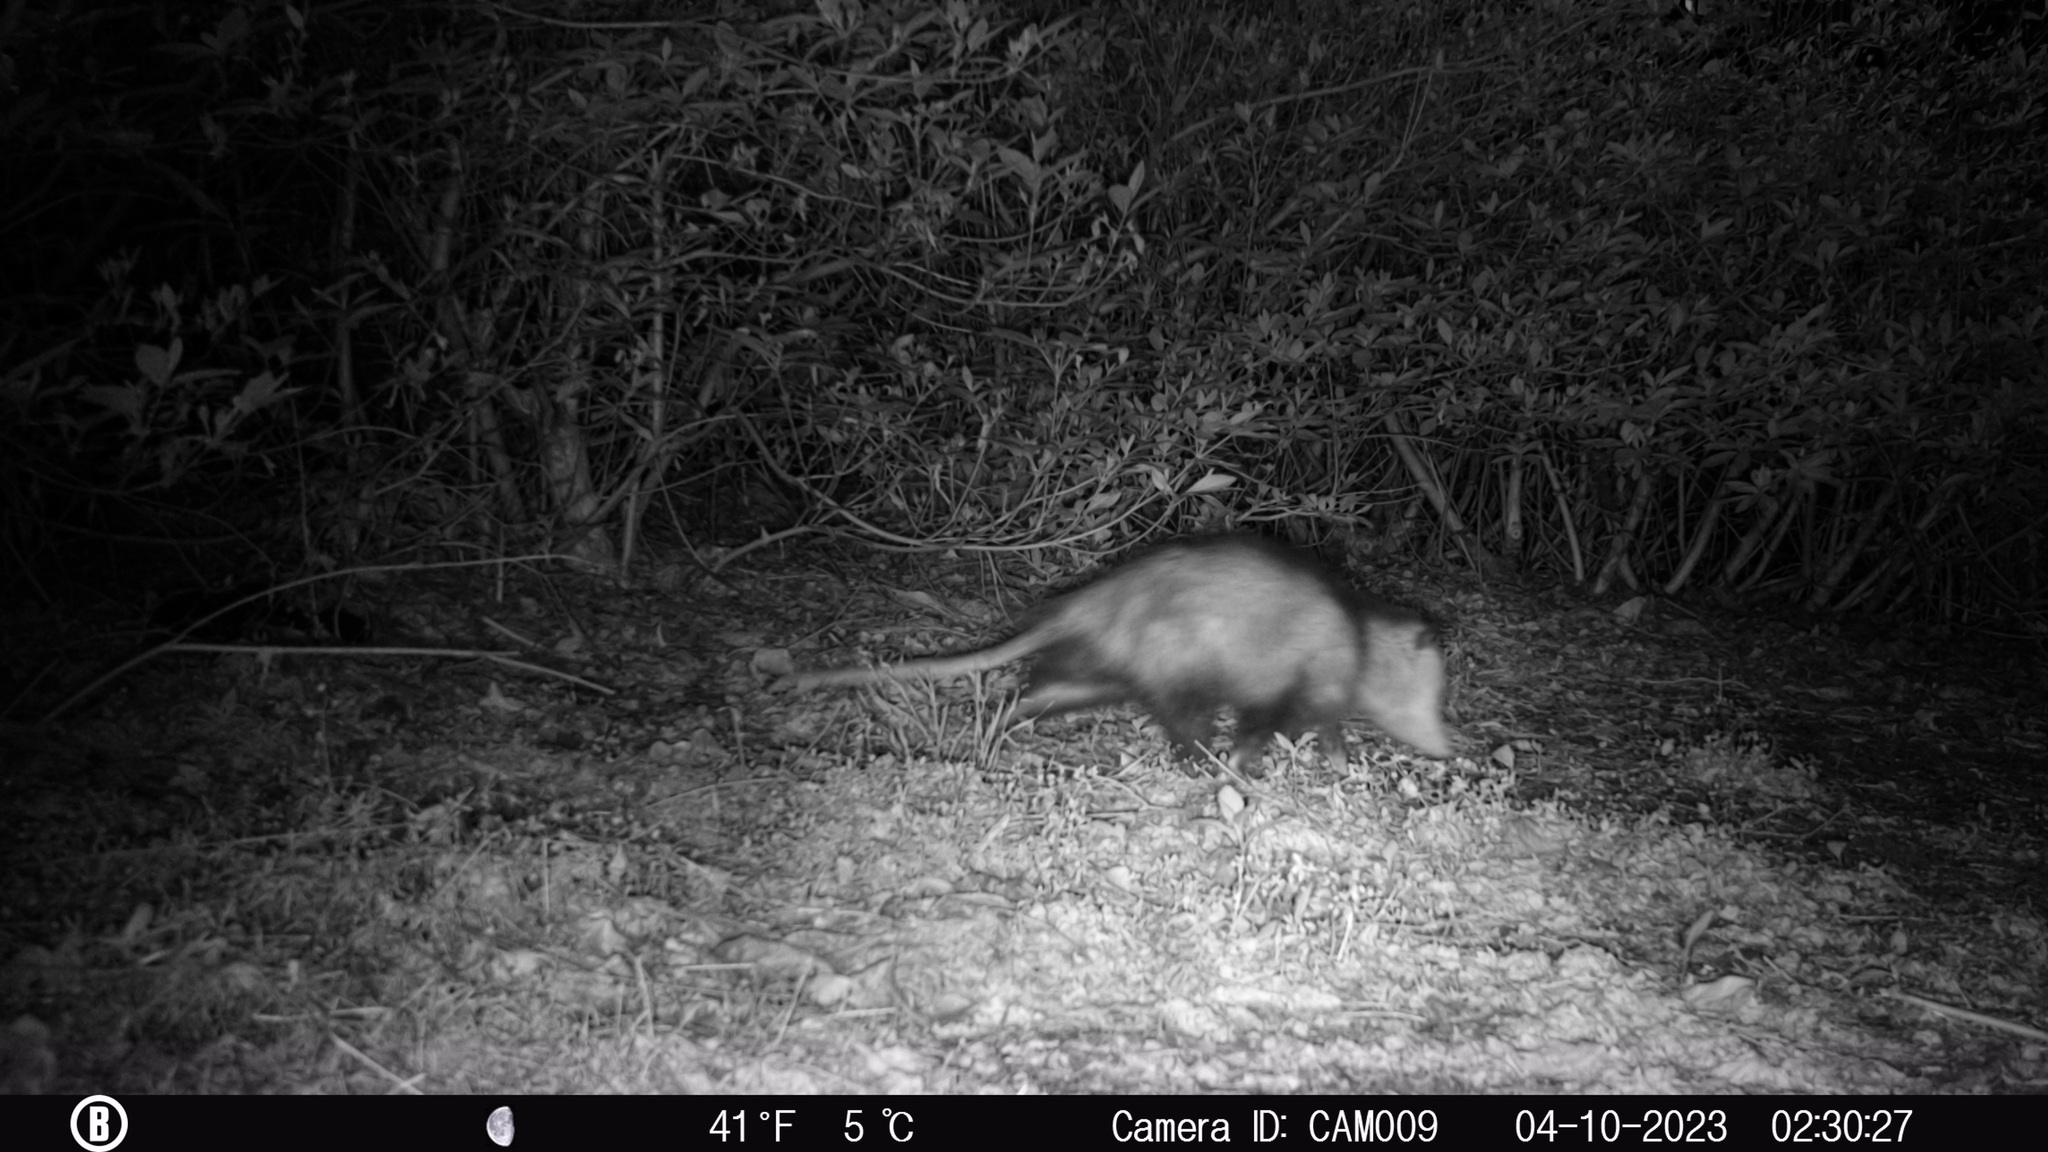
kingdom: Animalia
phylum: Chordata
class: Mammalia
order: Didelphimorphia
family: Didelphidae
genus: Didelphis
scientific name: Didelphis virginiana
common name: Virginia opossum
